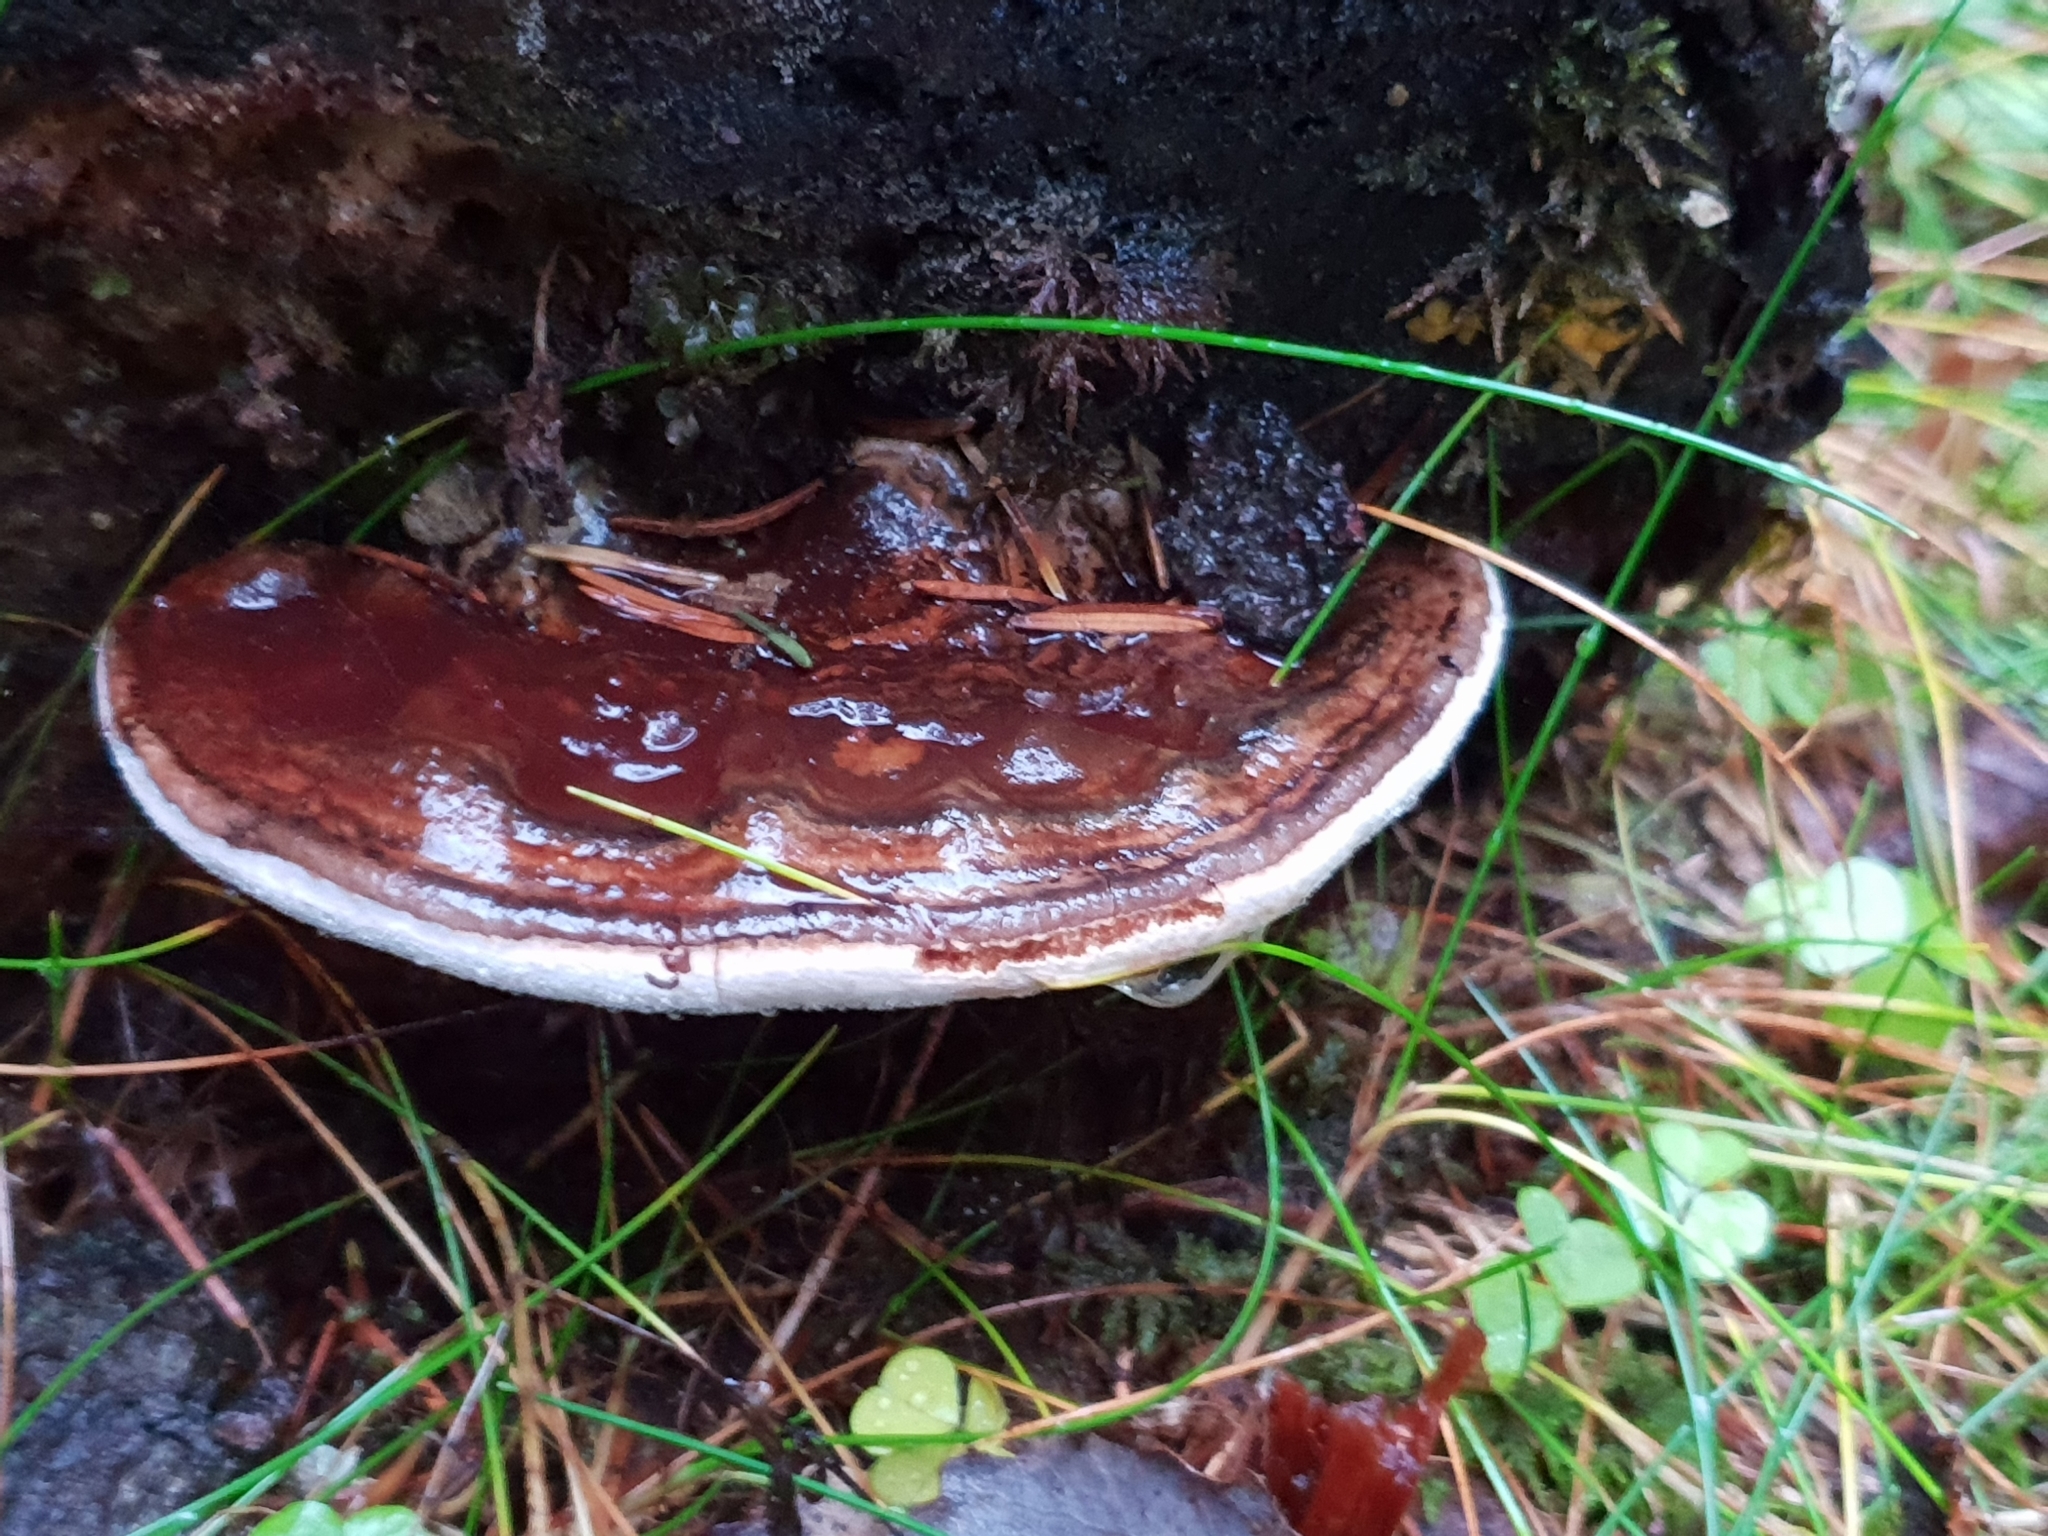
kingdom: Fungi
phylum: Basidiomycota
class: Agaricomycetes
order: Polyporales
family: Polyporaceae
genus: Ganoderma
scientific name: Ganoderma applanatum
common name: Artist's bracket
